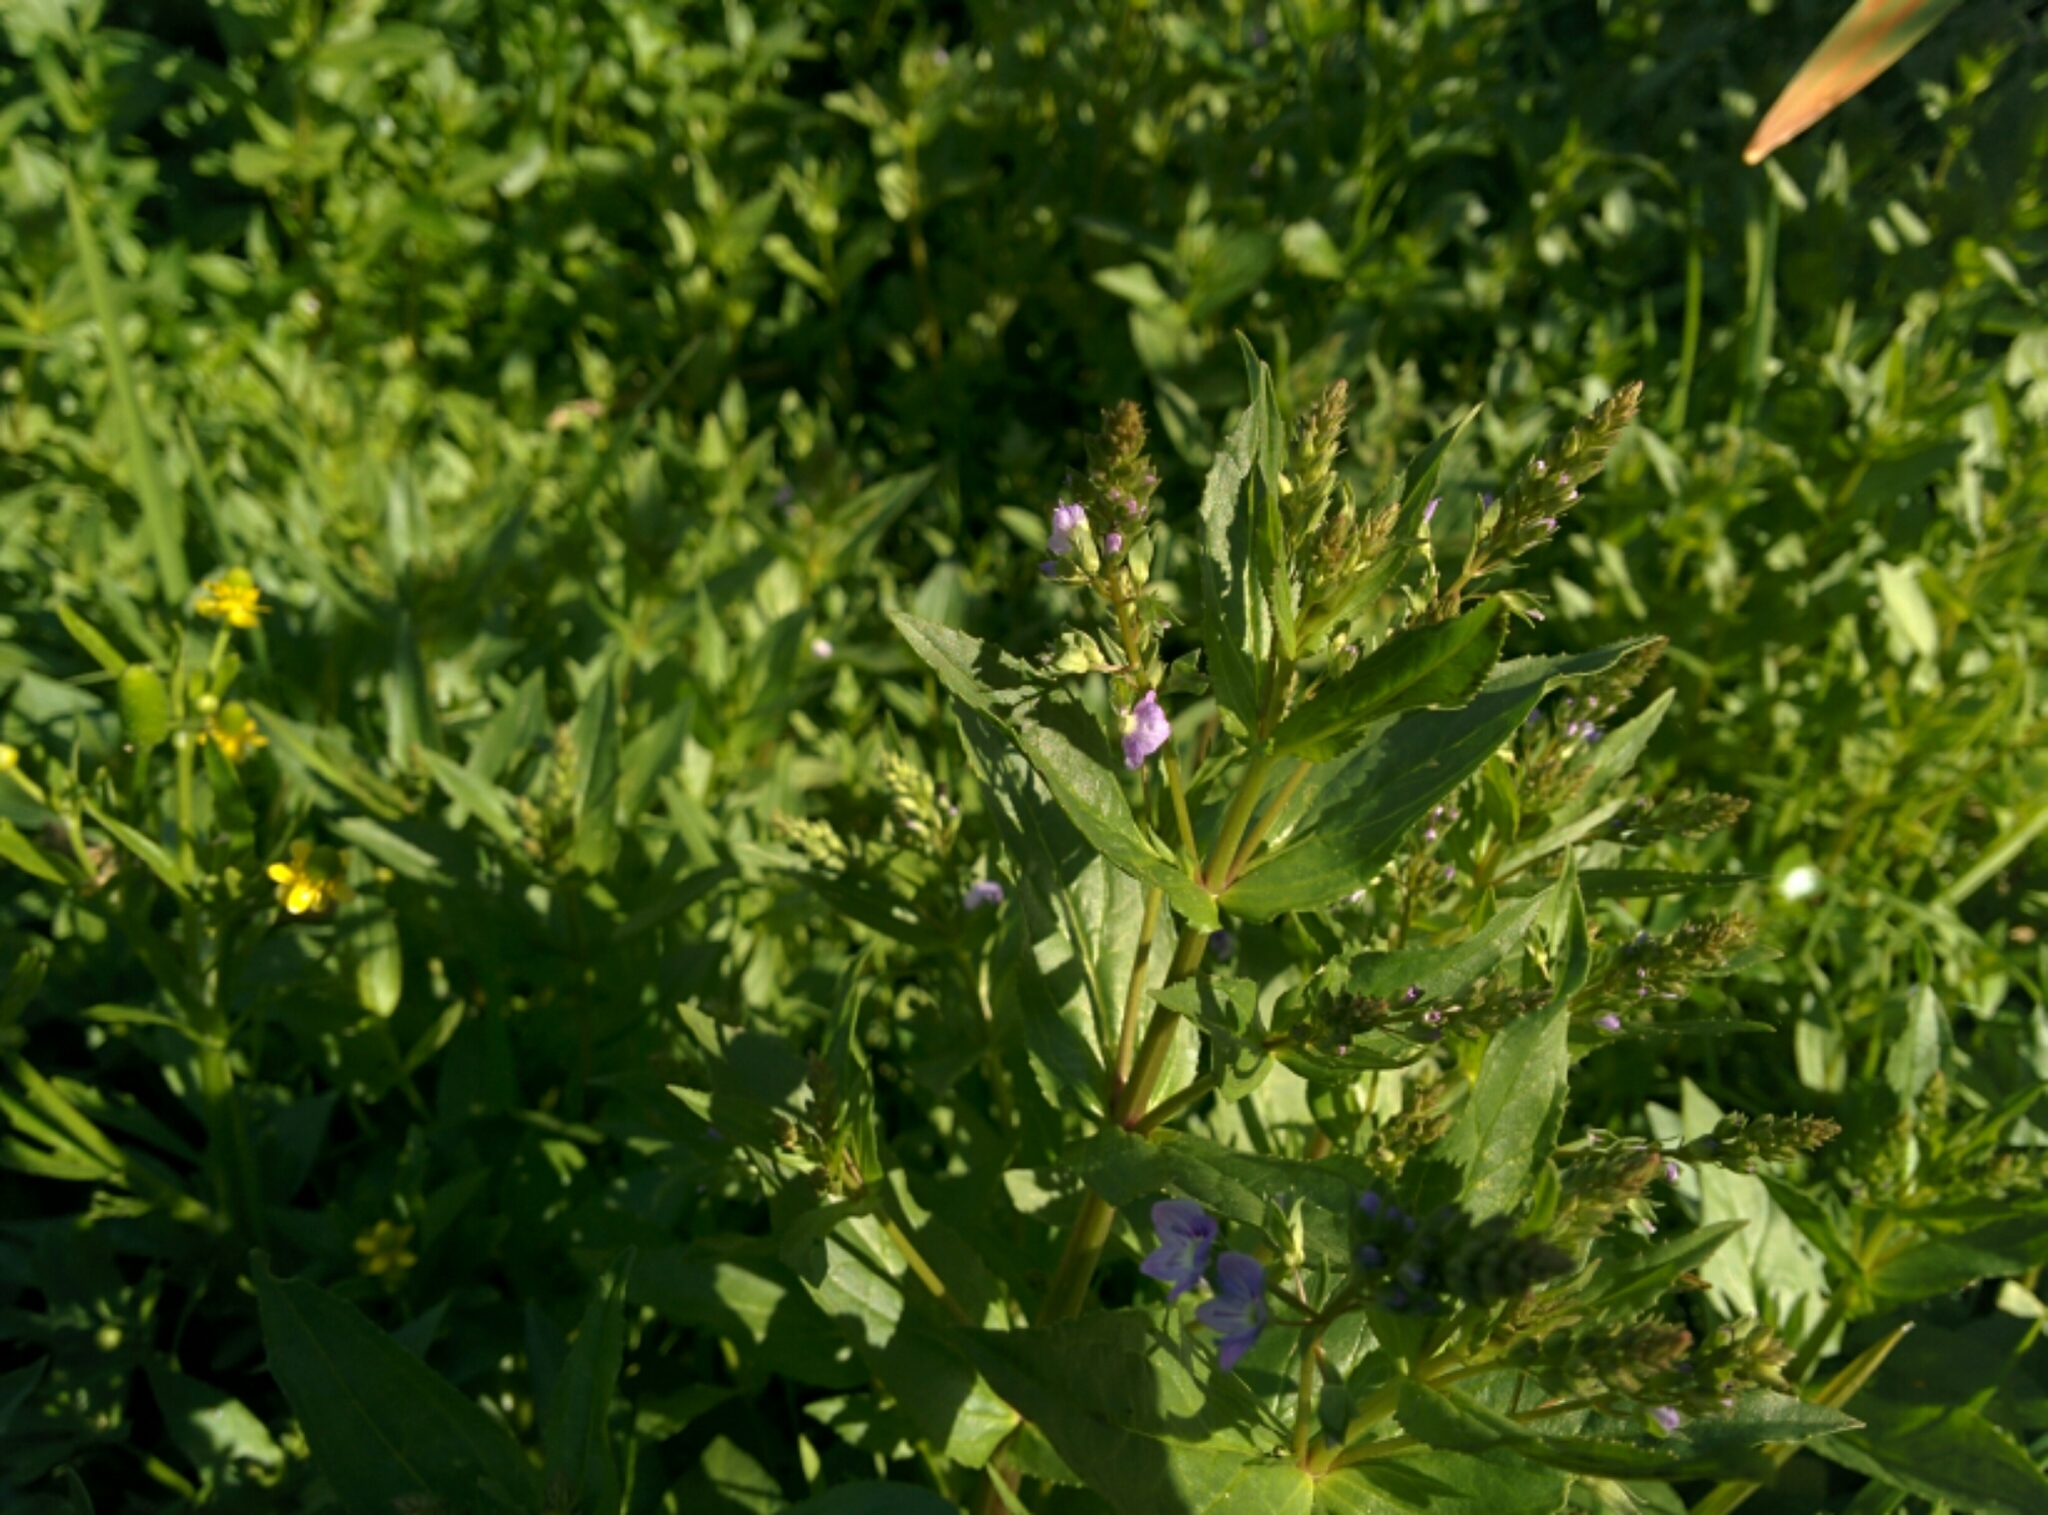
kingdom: Plantae
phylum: Tracheophyta
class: Magnoliopsida
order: Lamiales
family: Plantaginaceae
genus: Veronica
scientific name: Veronica anagallis-aquatica
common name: Water speedwell
